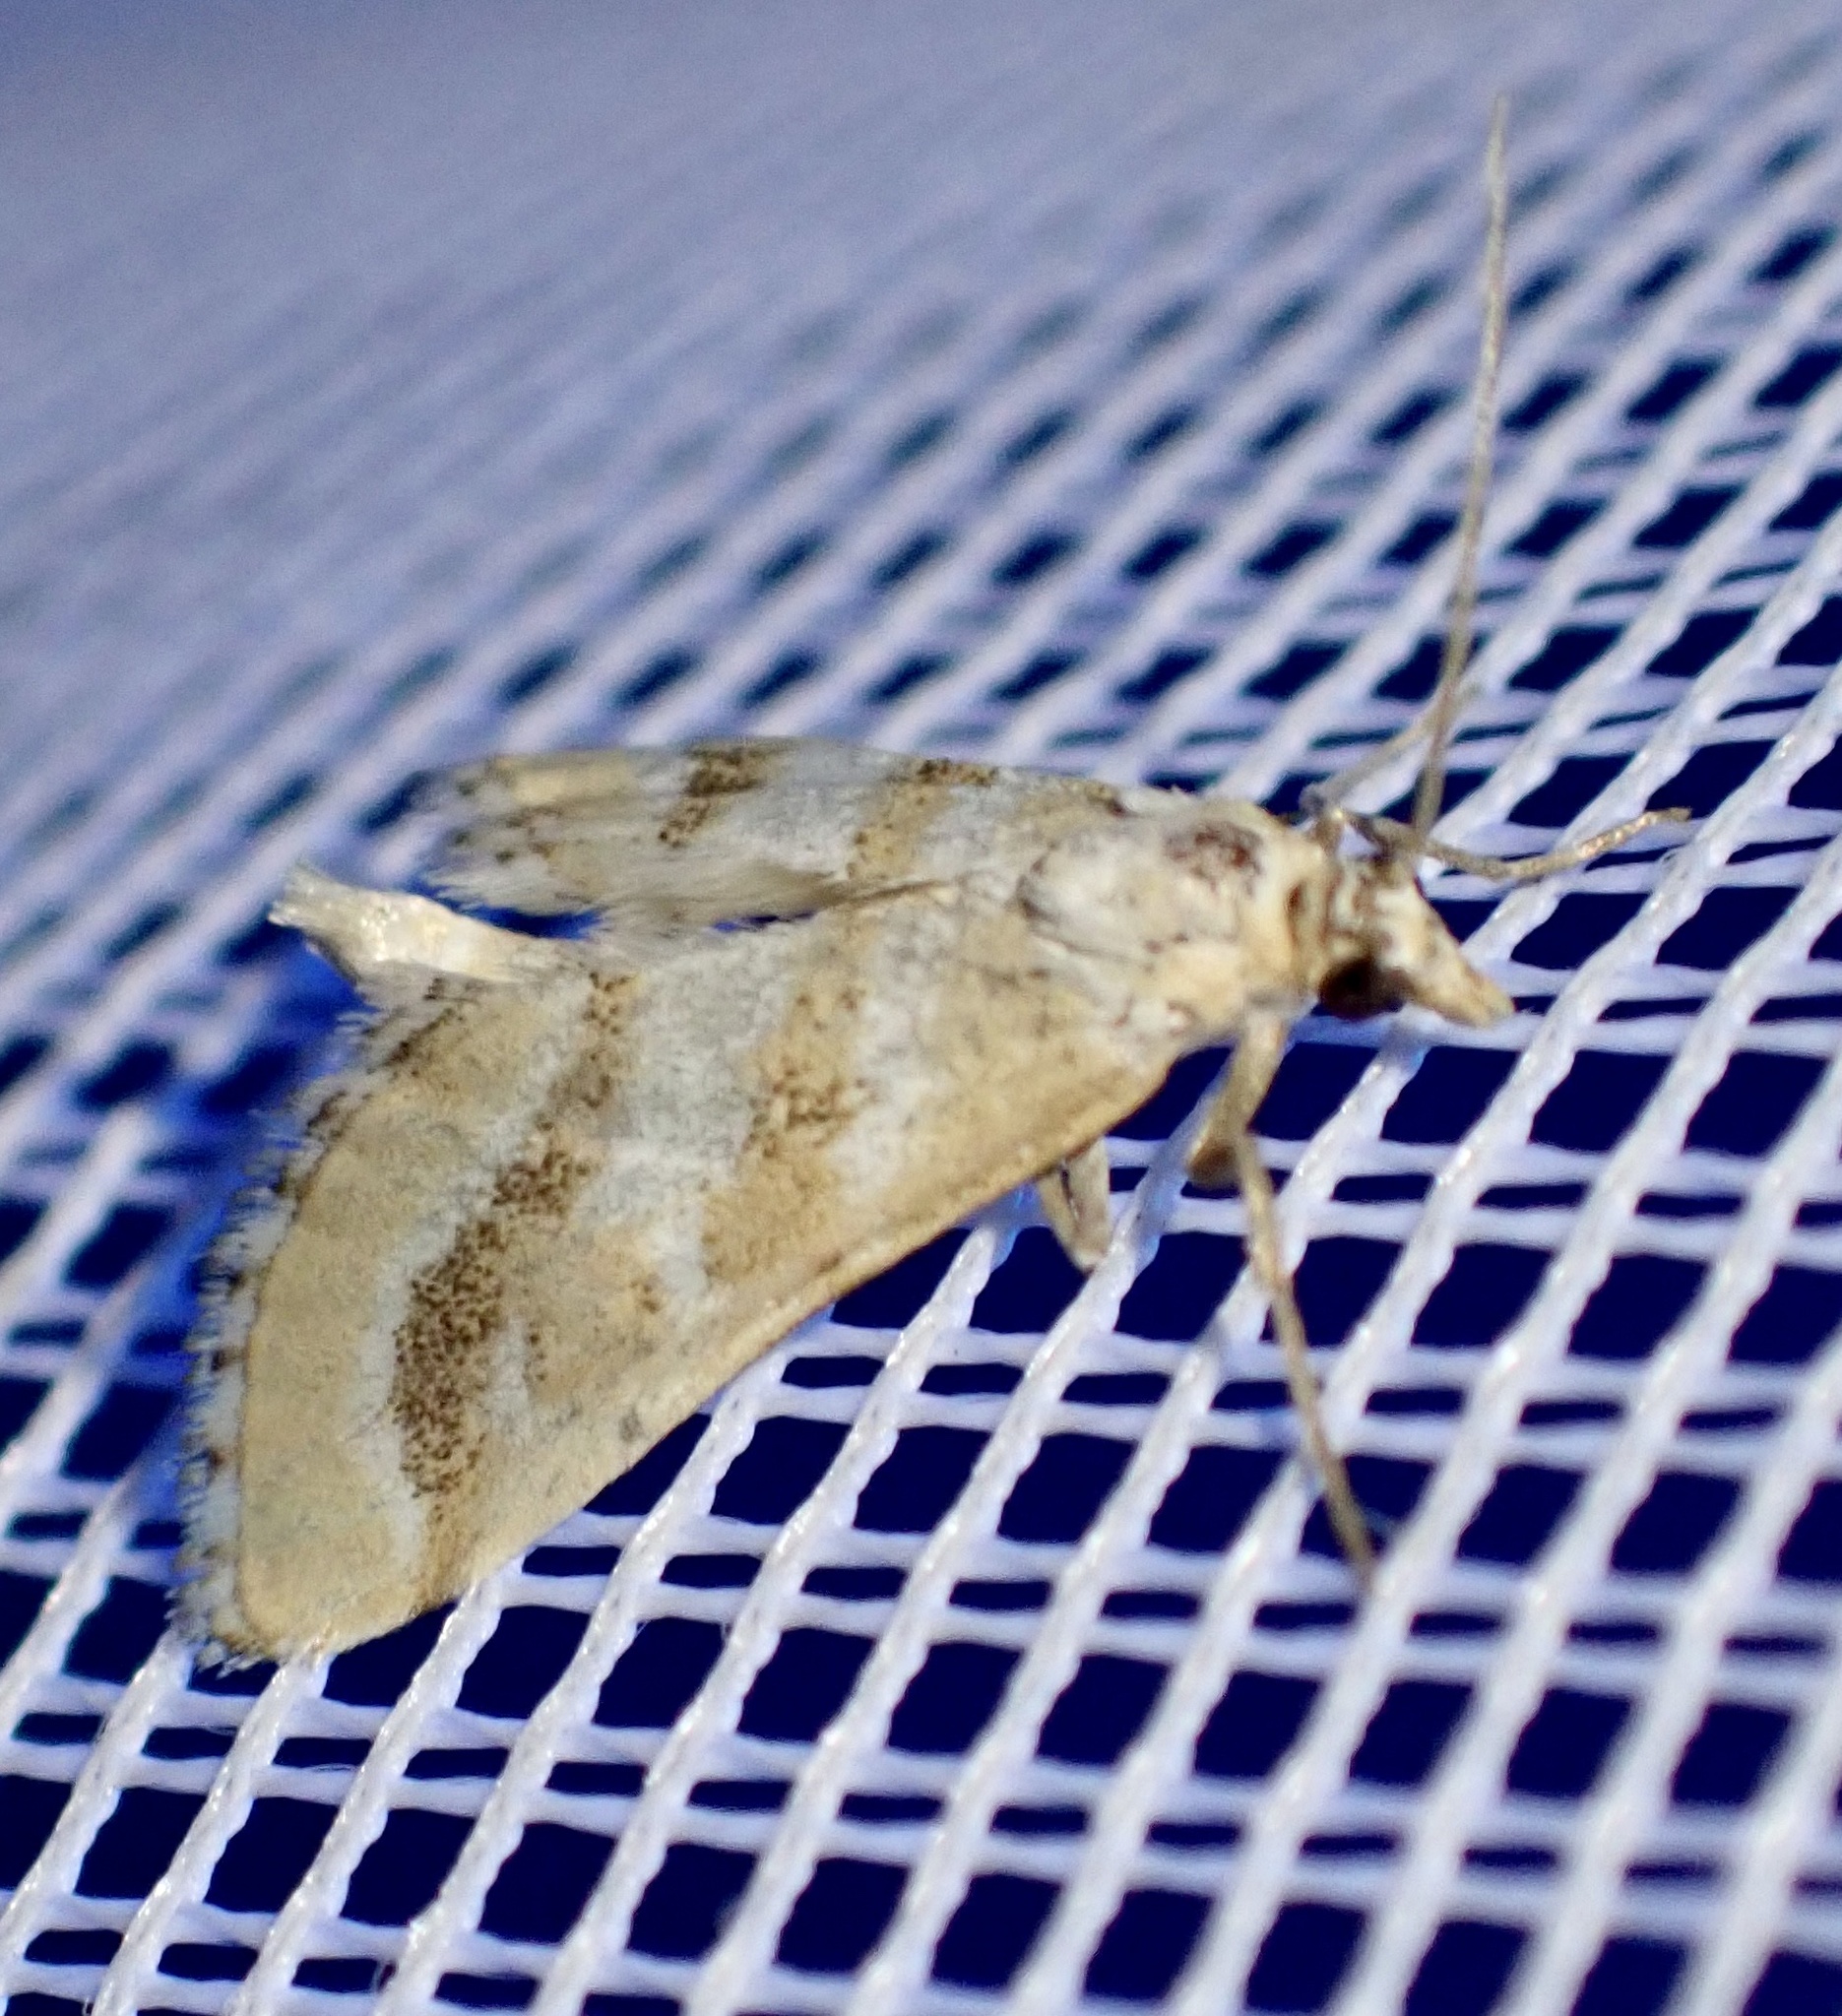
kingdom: Animalia
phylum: Arthropoda
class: Insecta
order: Lepidoptera
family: Crambidae
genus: Metasia
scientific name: Metasia suppandalis
